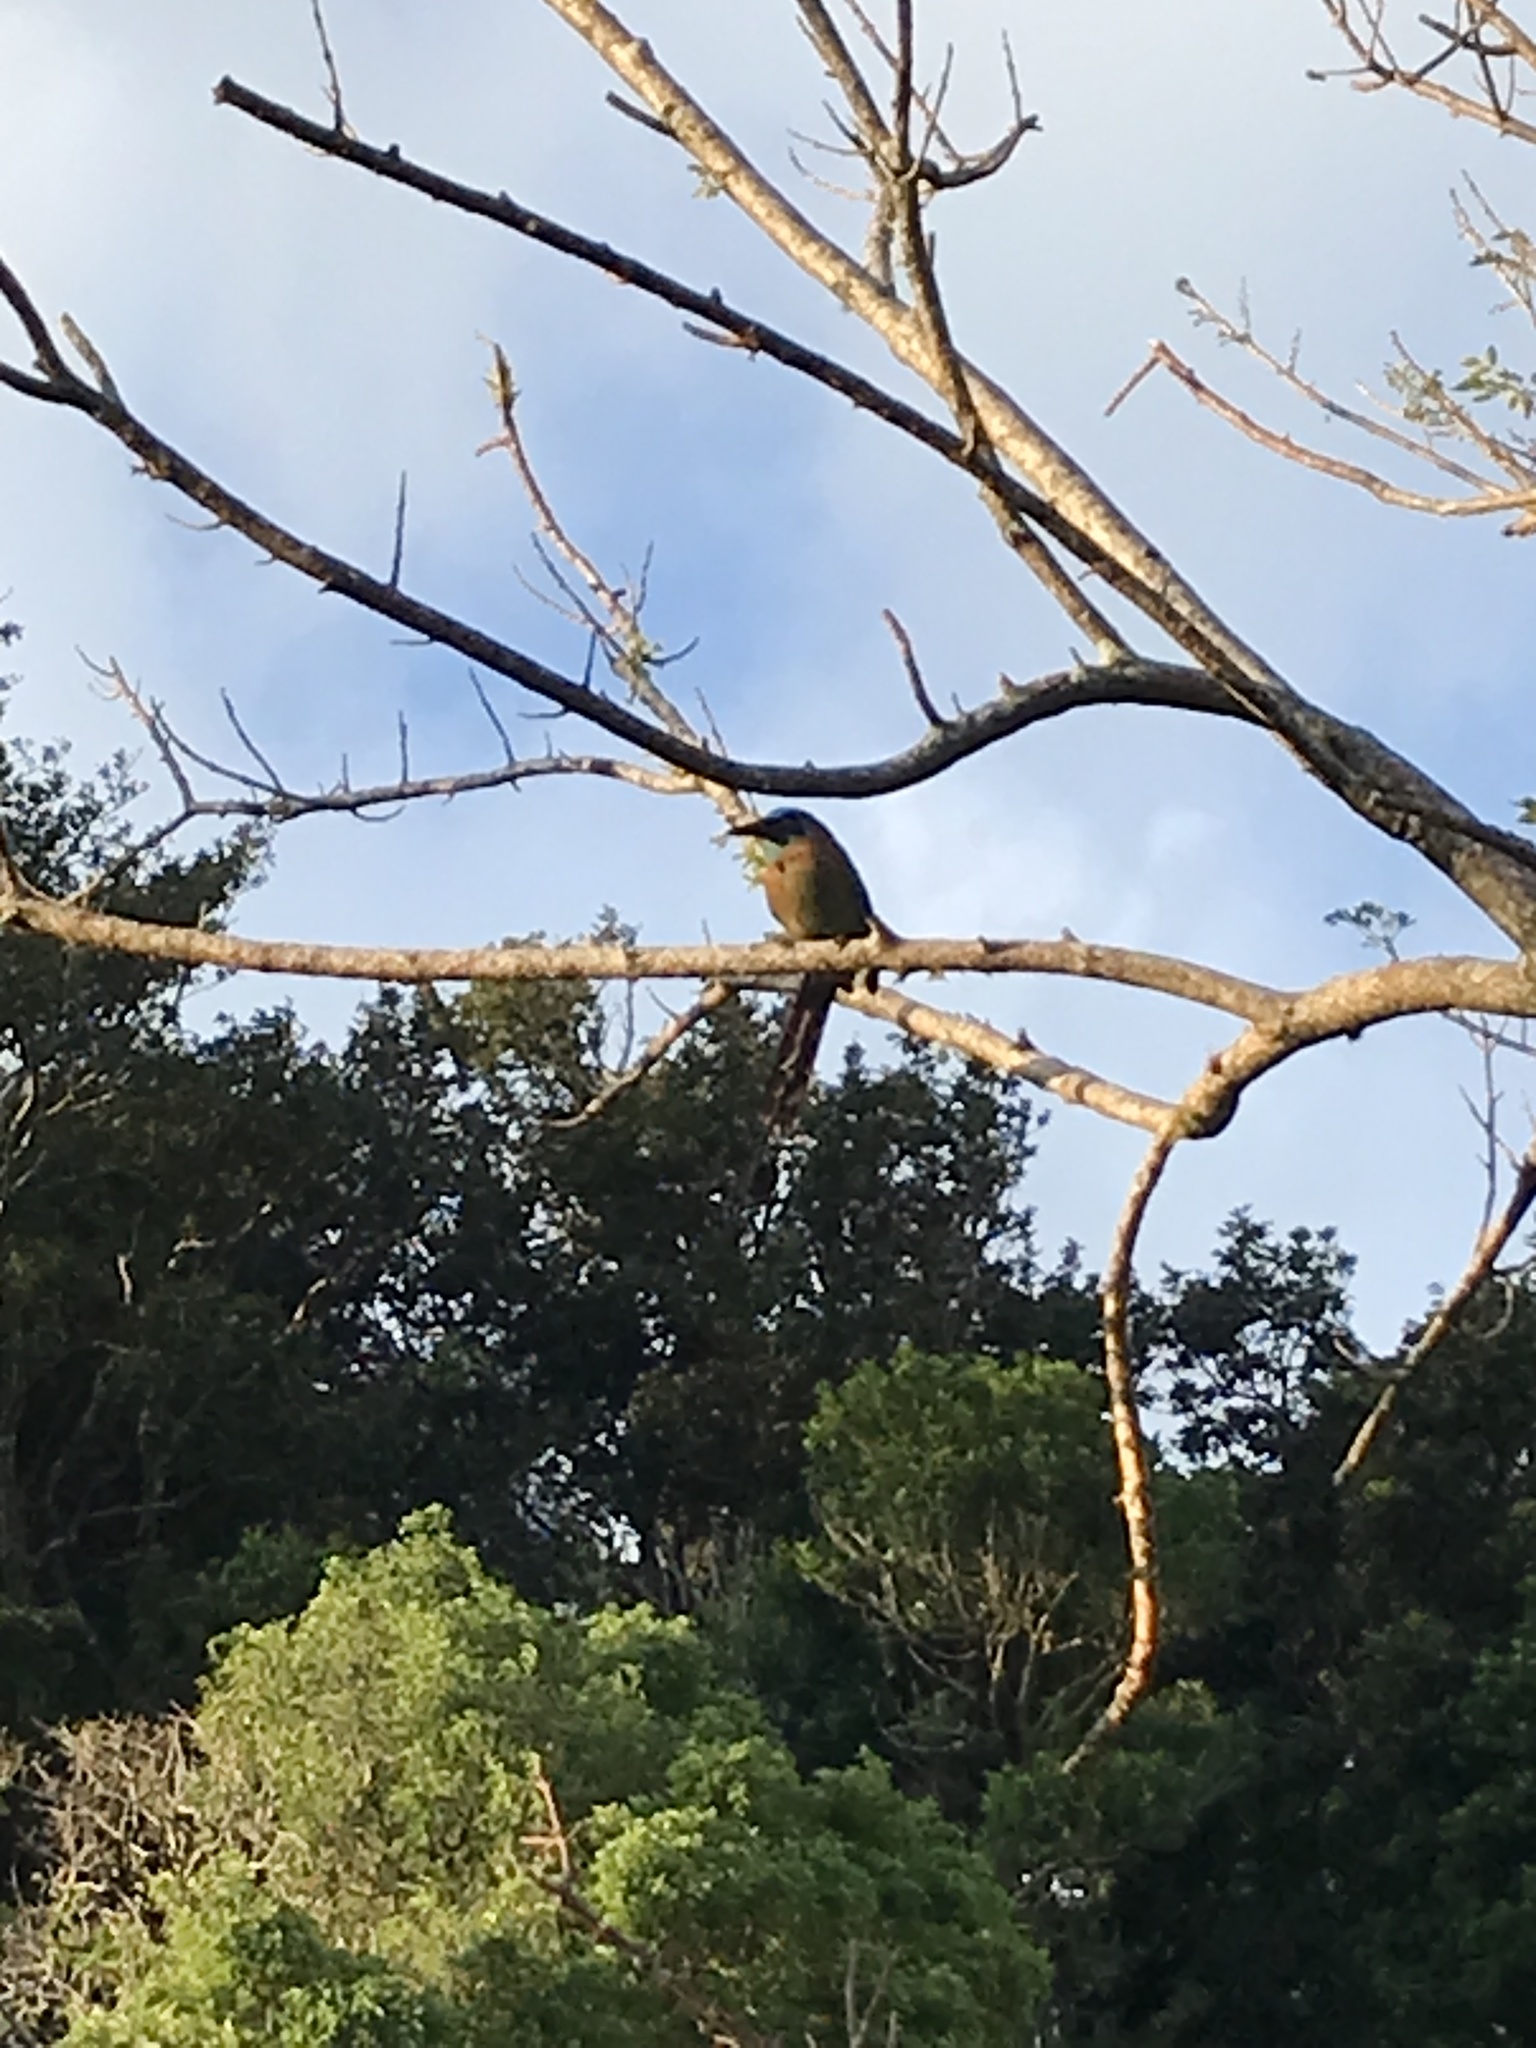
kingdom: Animalia
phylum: Chordata
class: Aves
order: Coraciiformes
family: Momotidae
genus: Momotus
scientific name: Momotus lessonii
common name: Lesson's motmot
